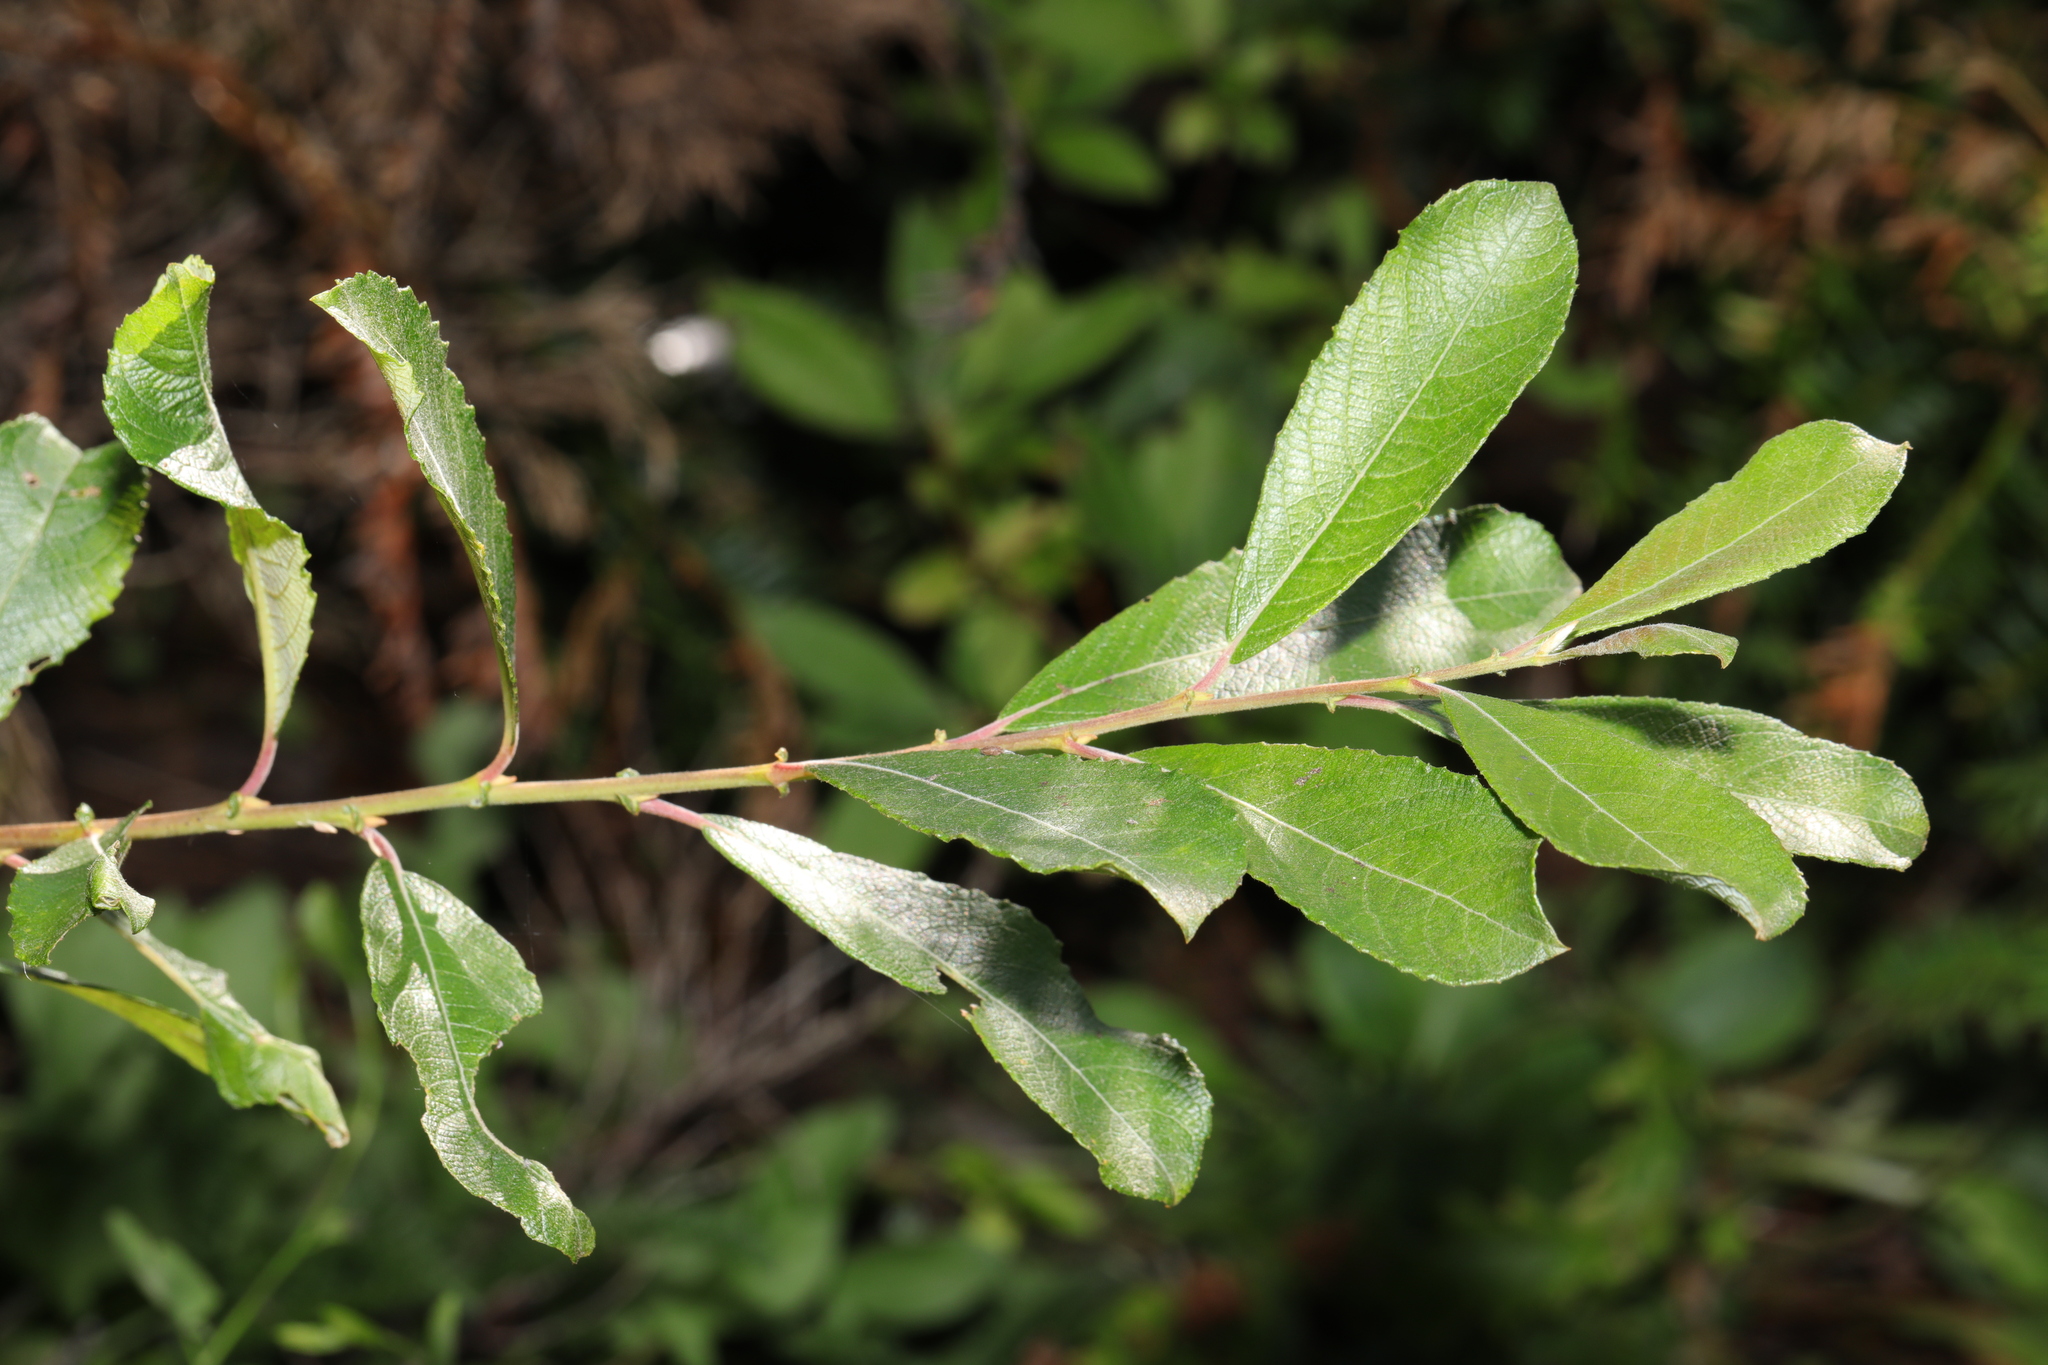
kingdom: Plantae
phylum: Tracheophyta
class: Magnoliopsida
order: Malpighiales
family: Salicaceae
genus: Salix
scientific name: Salix atrocinerea
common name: Rusty willow
